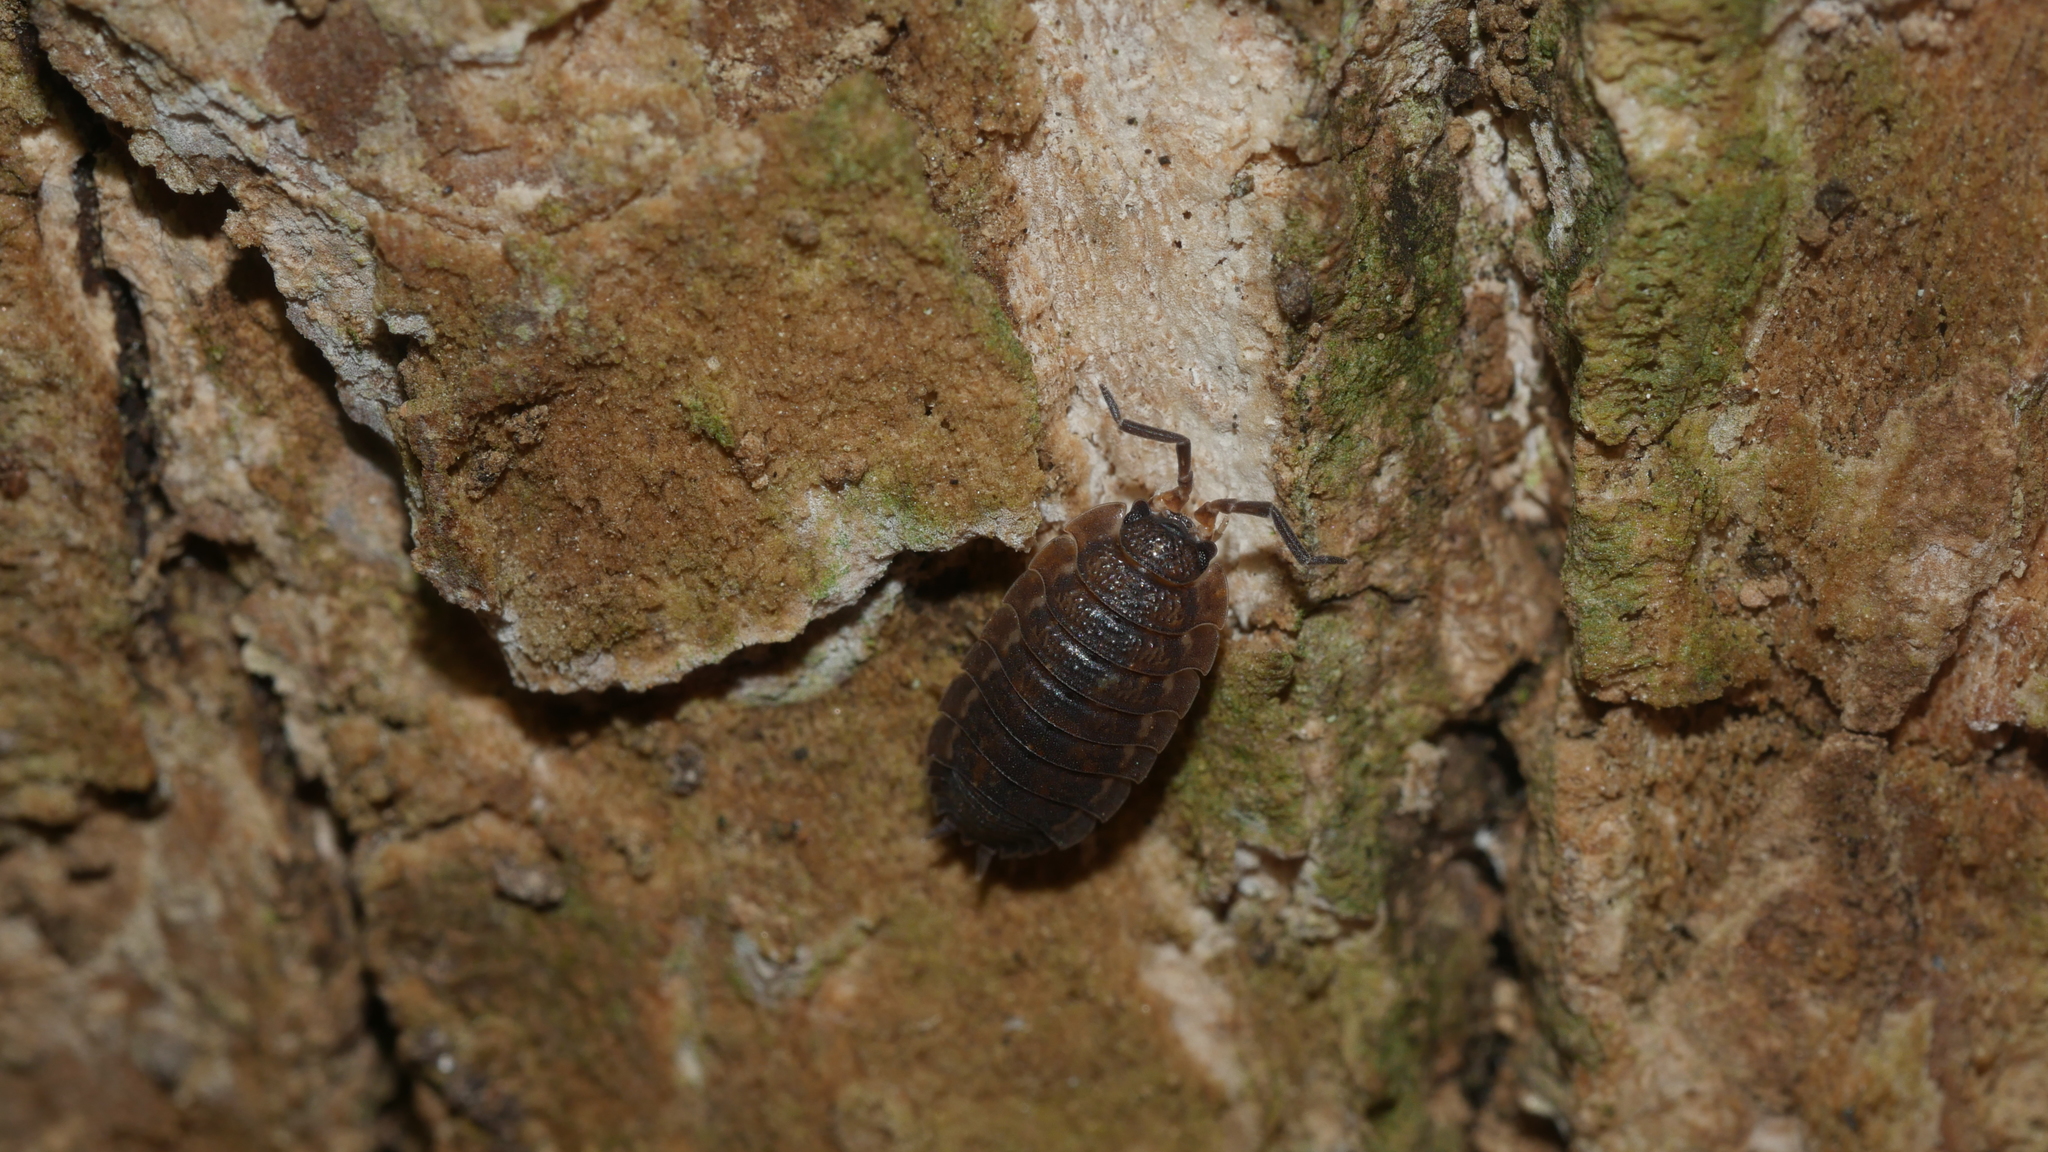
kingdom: Animalia
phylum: Arthropoda
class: Malacostraca
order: Isopoda
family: Porcellionidae
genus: Porcellio
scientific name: Porcellio scaber
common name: Common rough woodlouse
